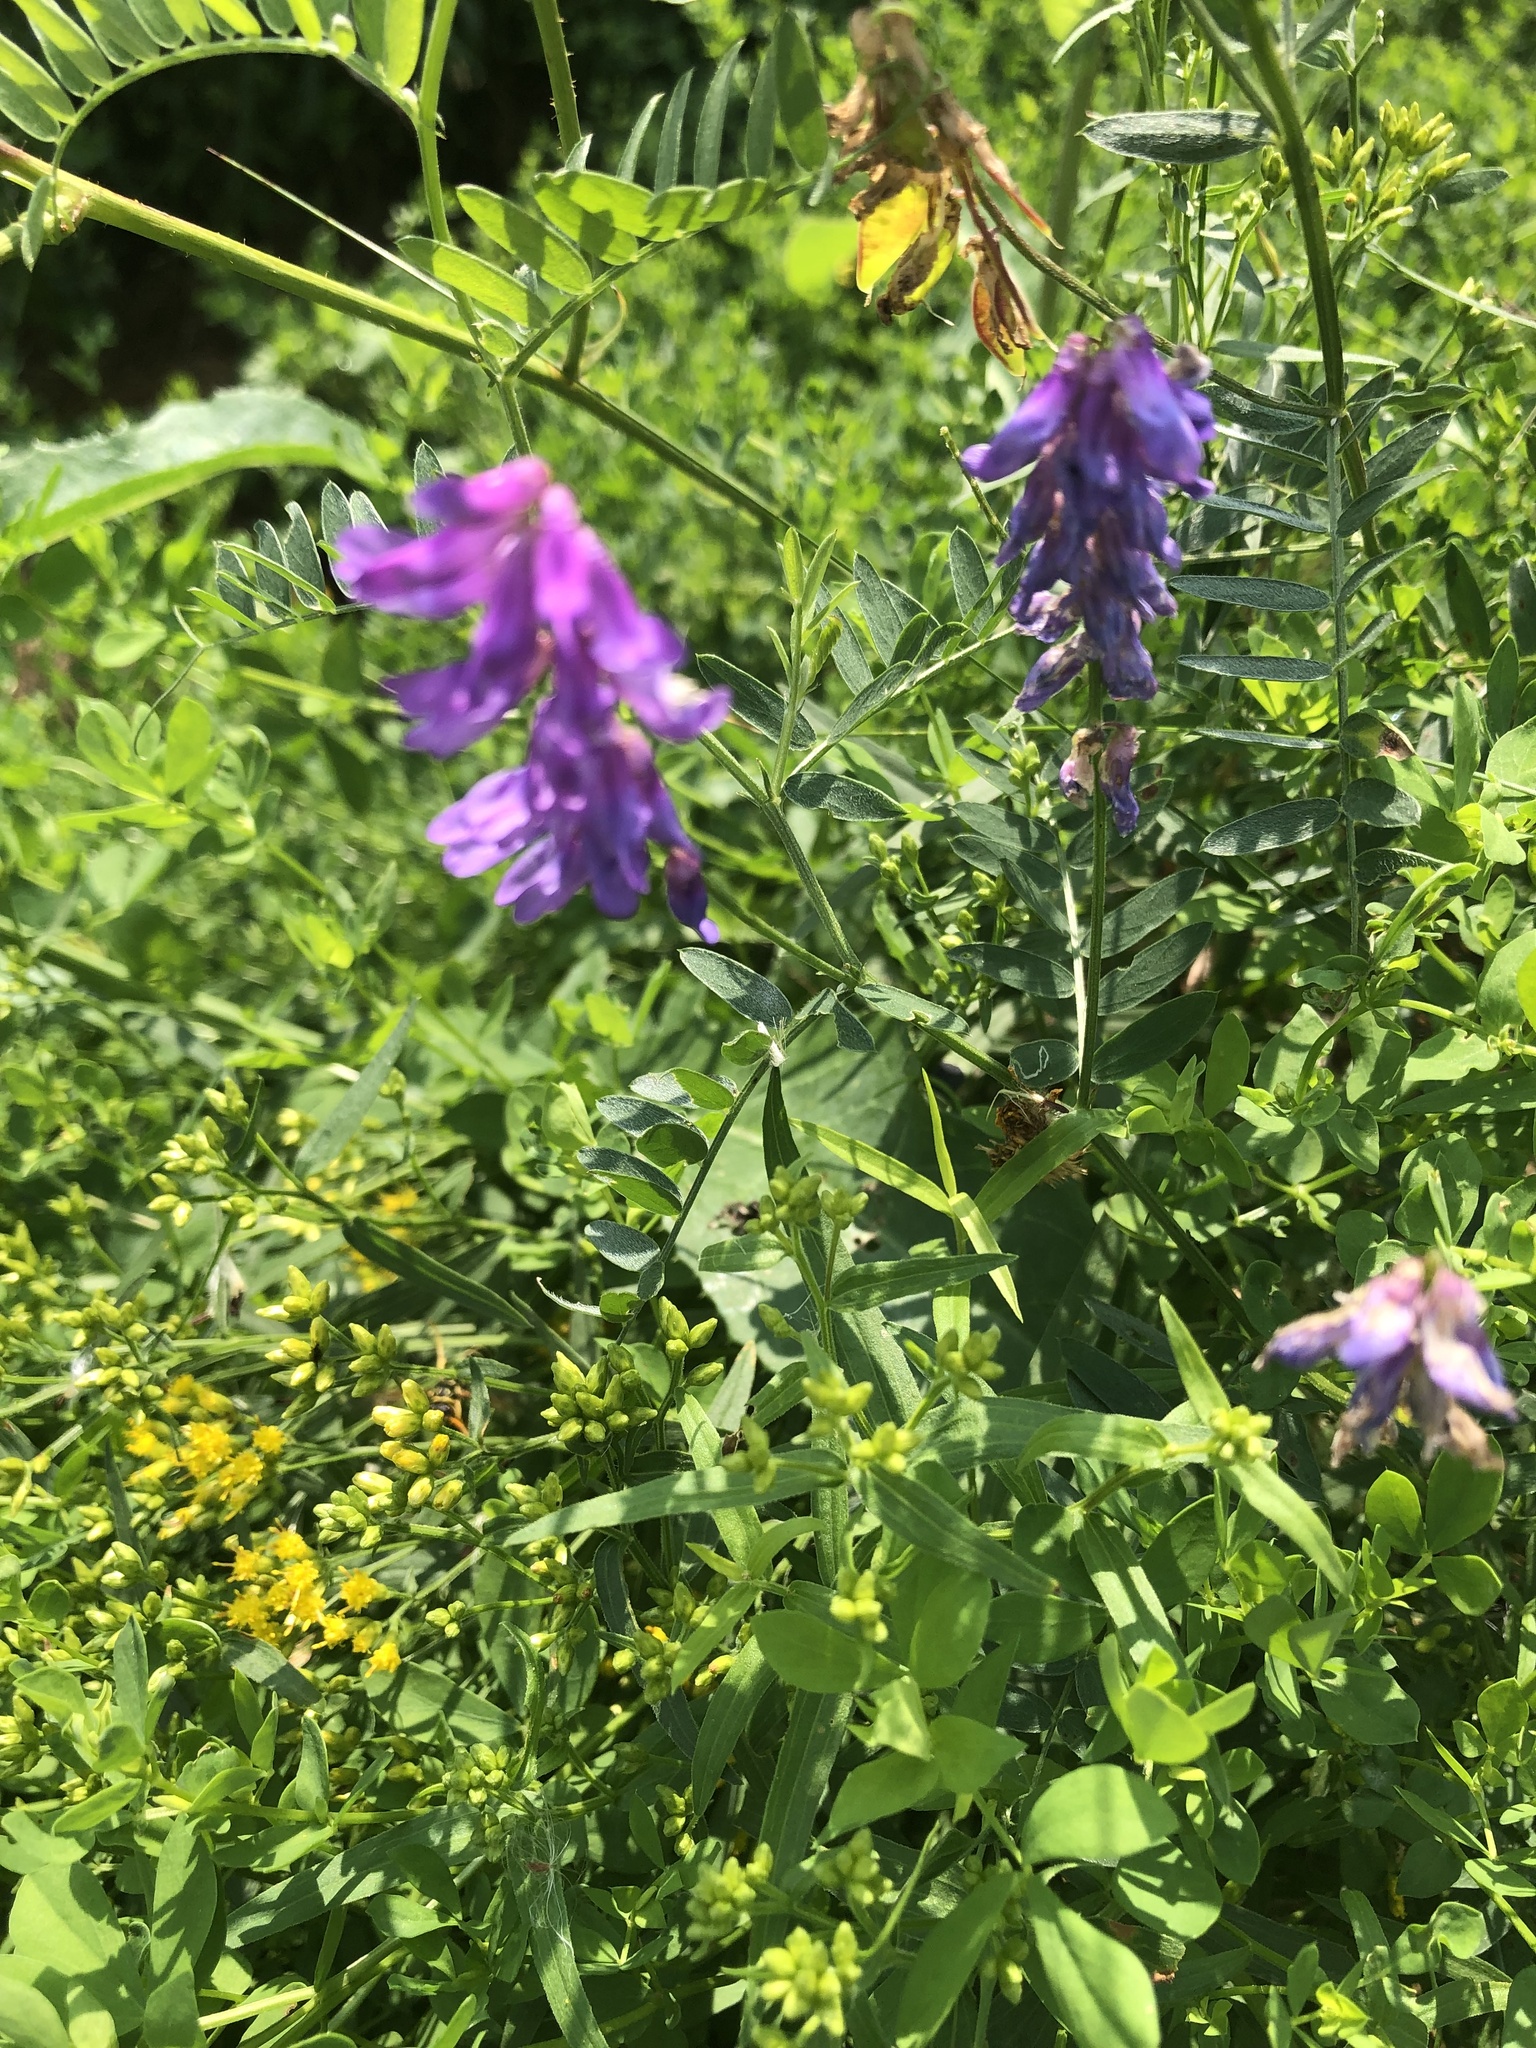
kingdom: Plantae
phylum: Tracheophyta
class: Magnoliopsida
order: Fabales
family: Fabaceae
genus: Vicia
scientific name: Vicia cracca
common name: Bird vetch
